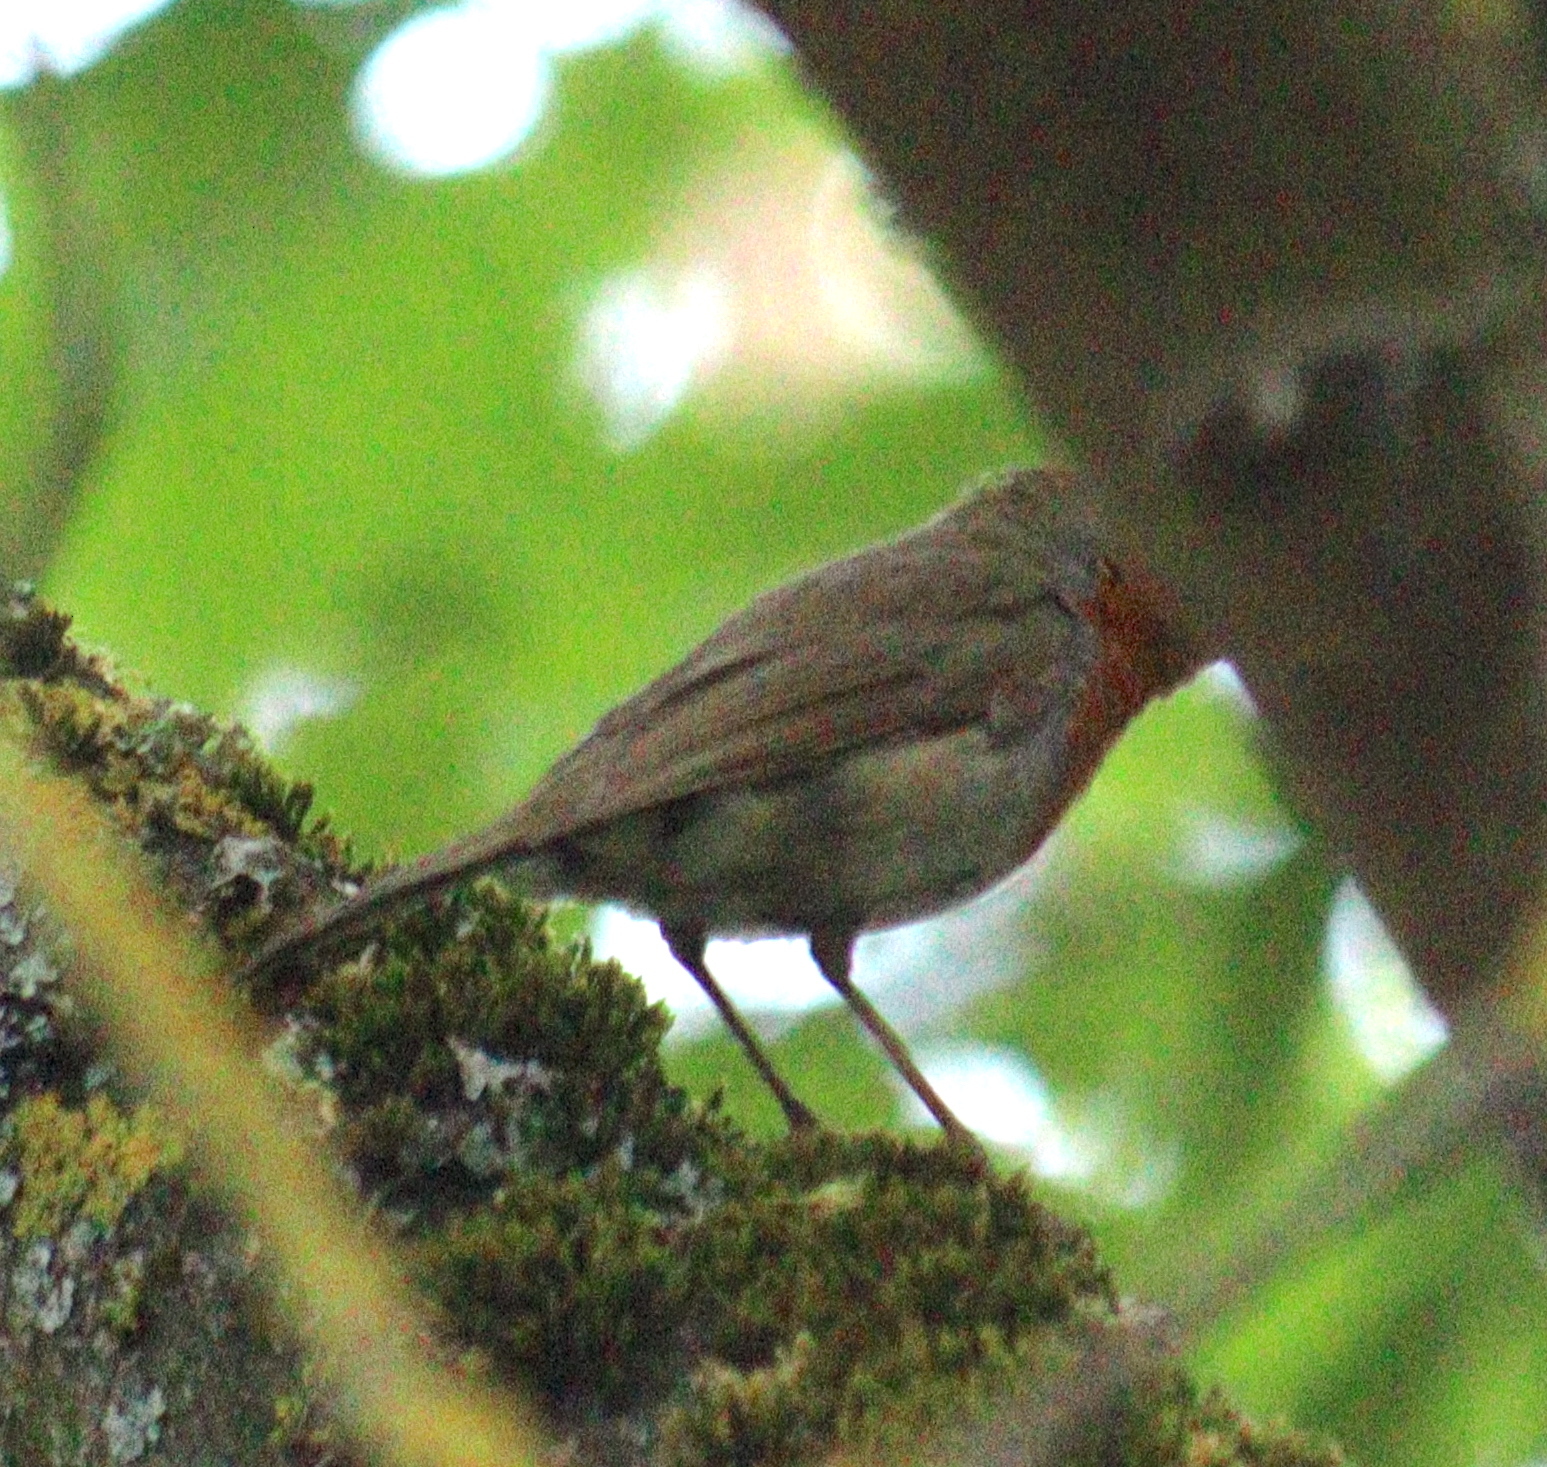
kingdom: Animalia
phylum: Chordata
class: Aves
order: Passeriformes
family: Muscicapidae
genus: Erithacus
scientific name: Erithacus rubecula
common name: European robin
